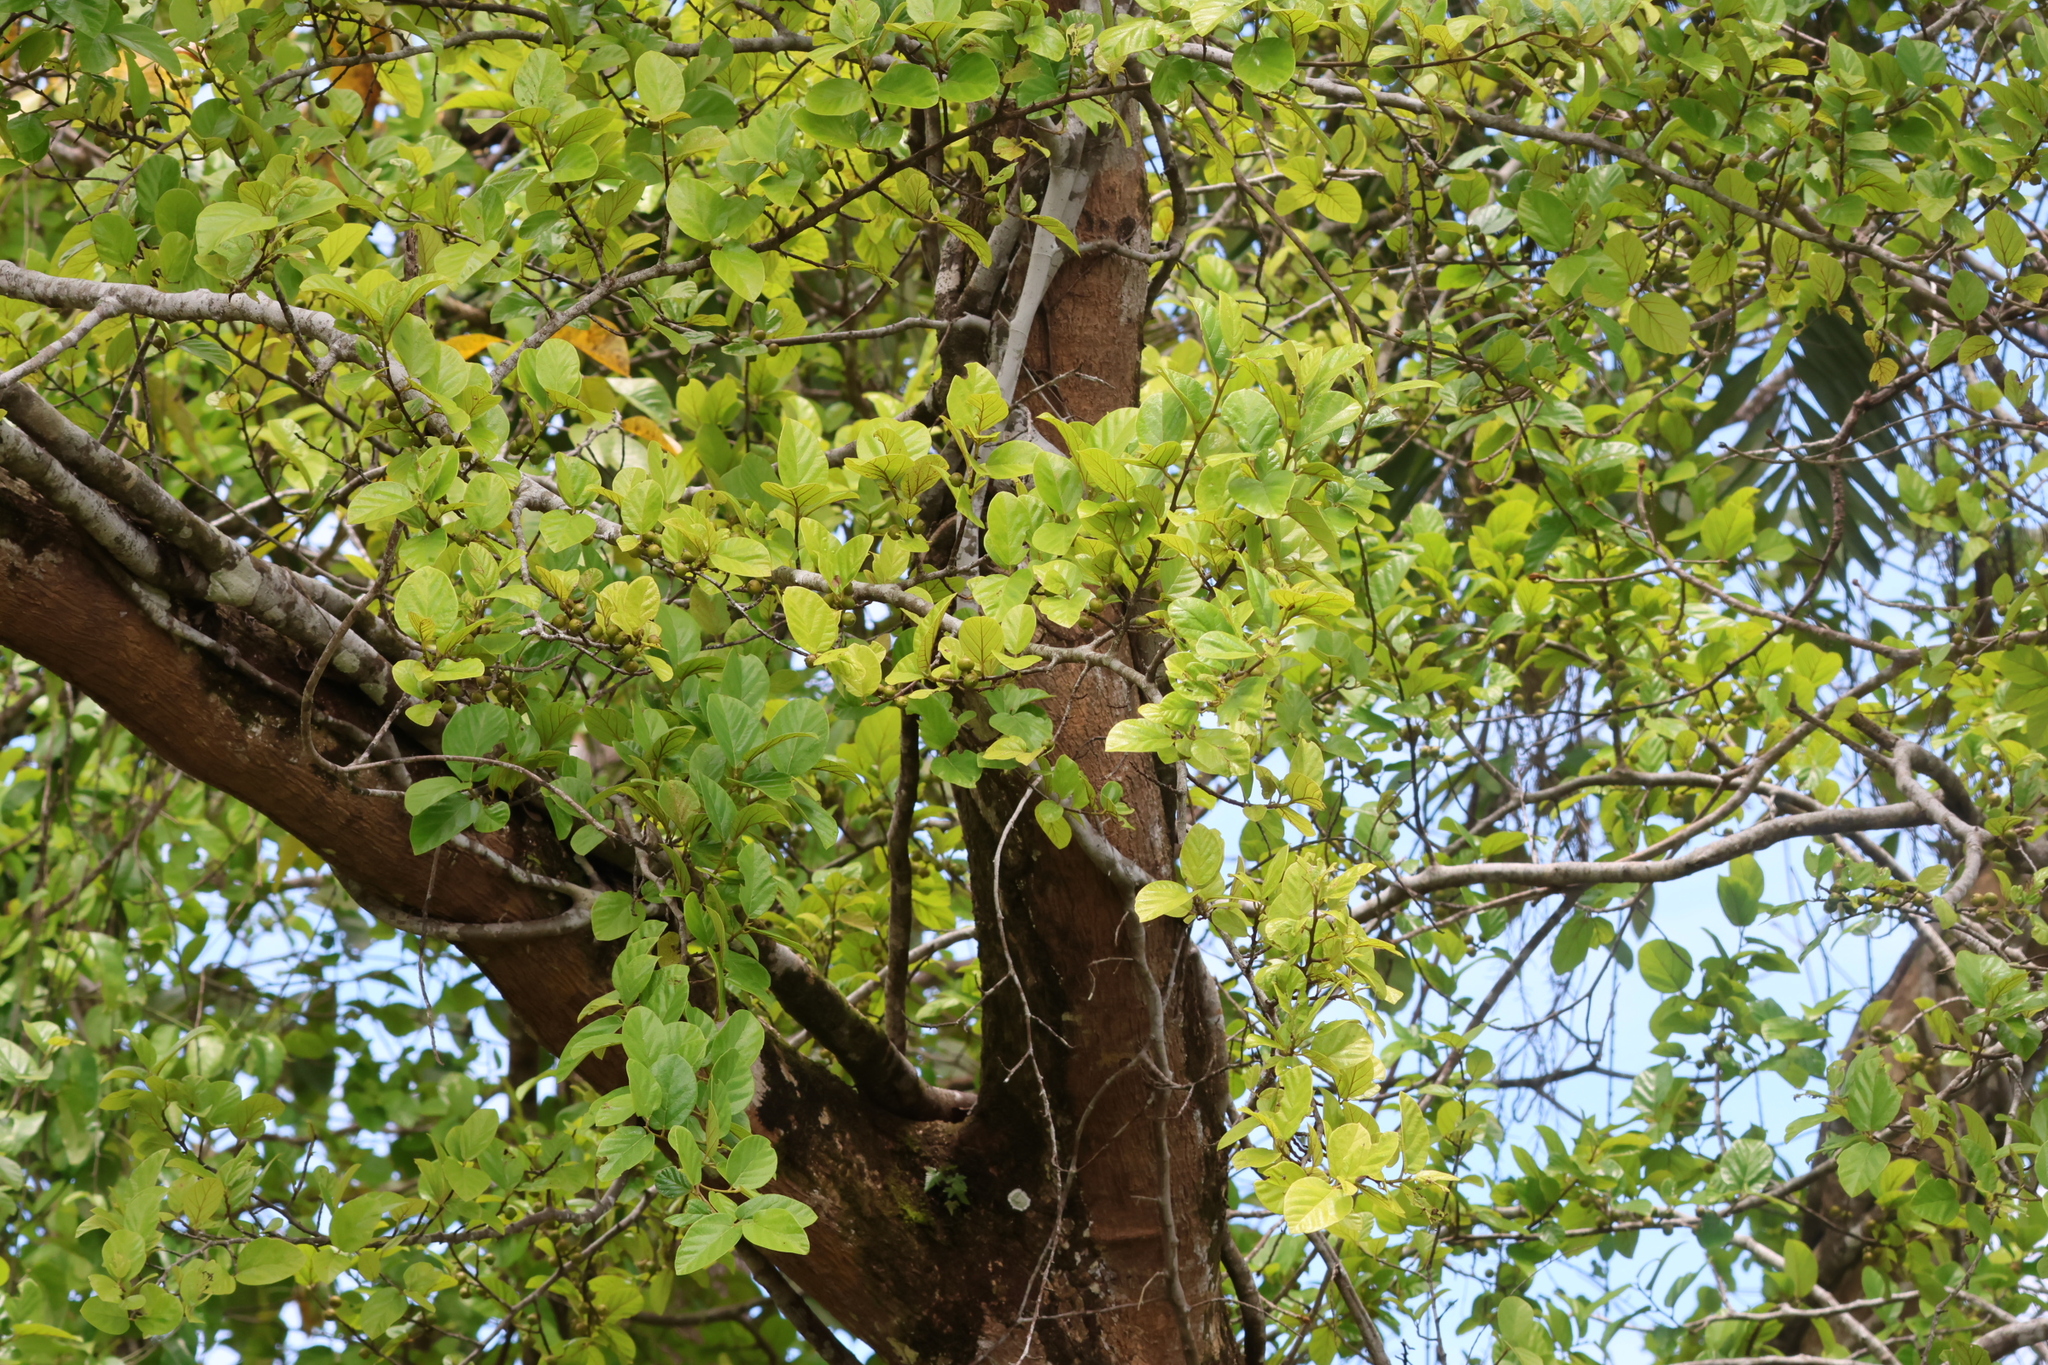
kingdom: Plantae
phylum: Tracheophyta
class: Magnoliopsida
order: Rosales
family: Moraceae
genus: Ficus
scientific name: Ficus trichocarpa
